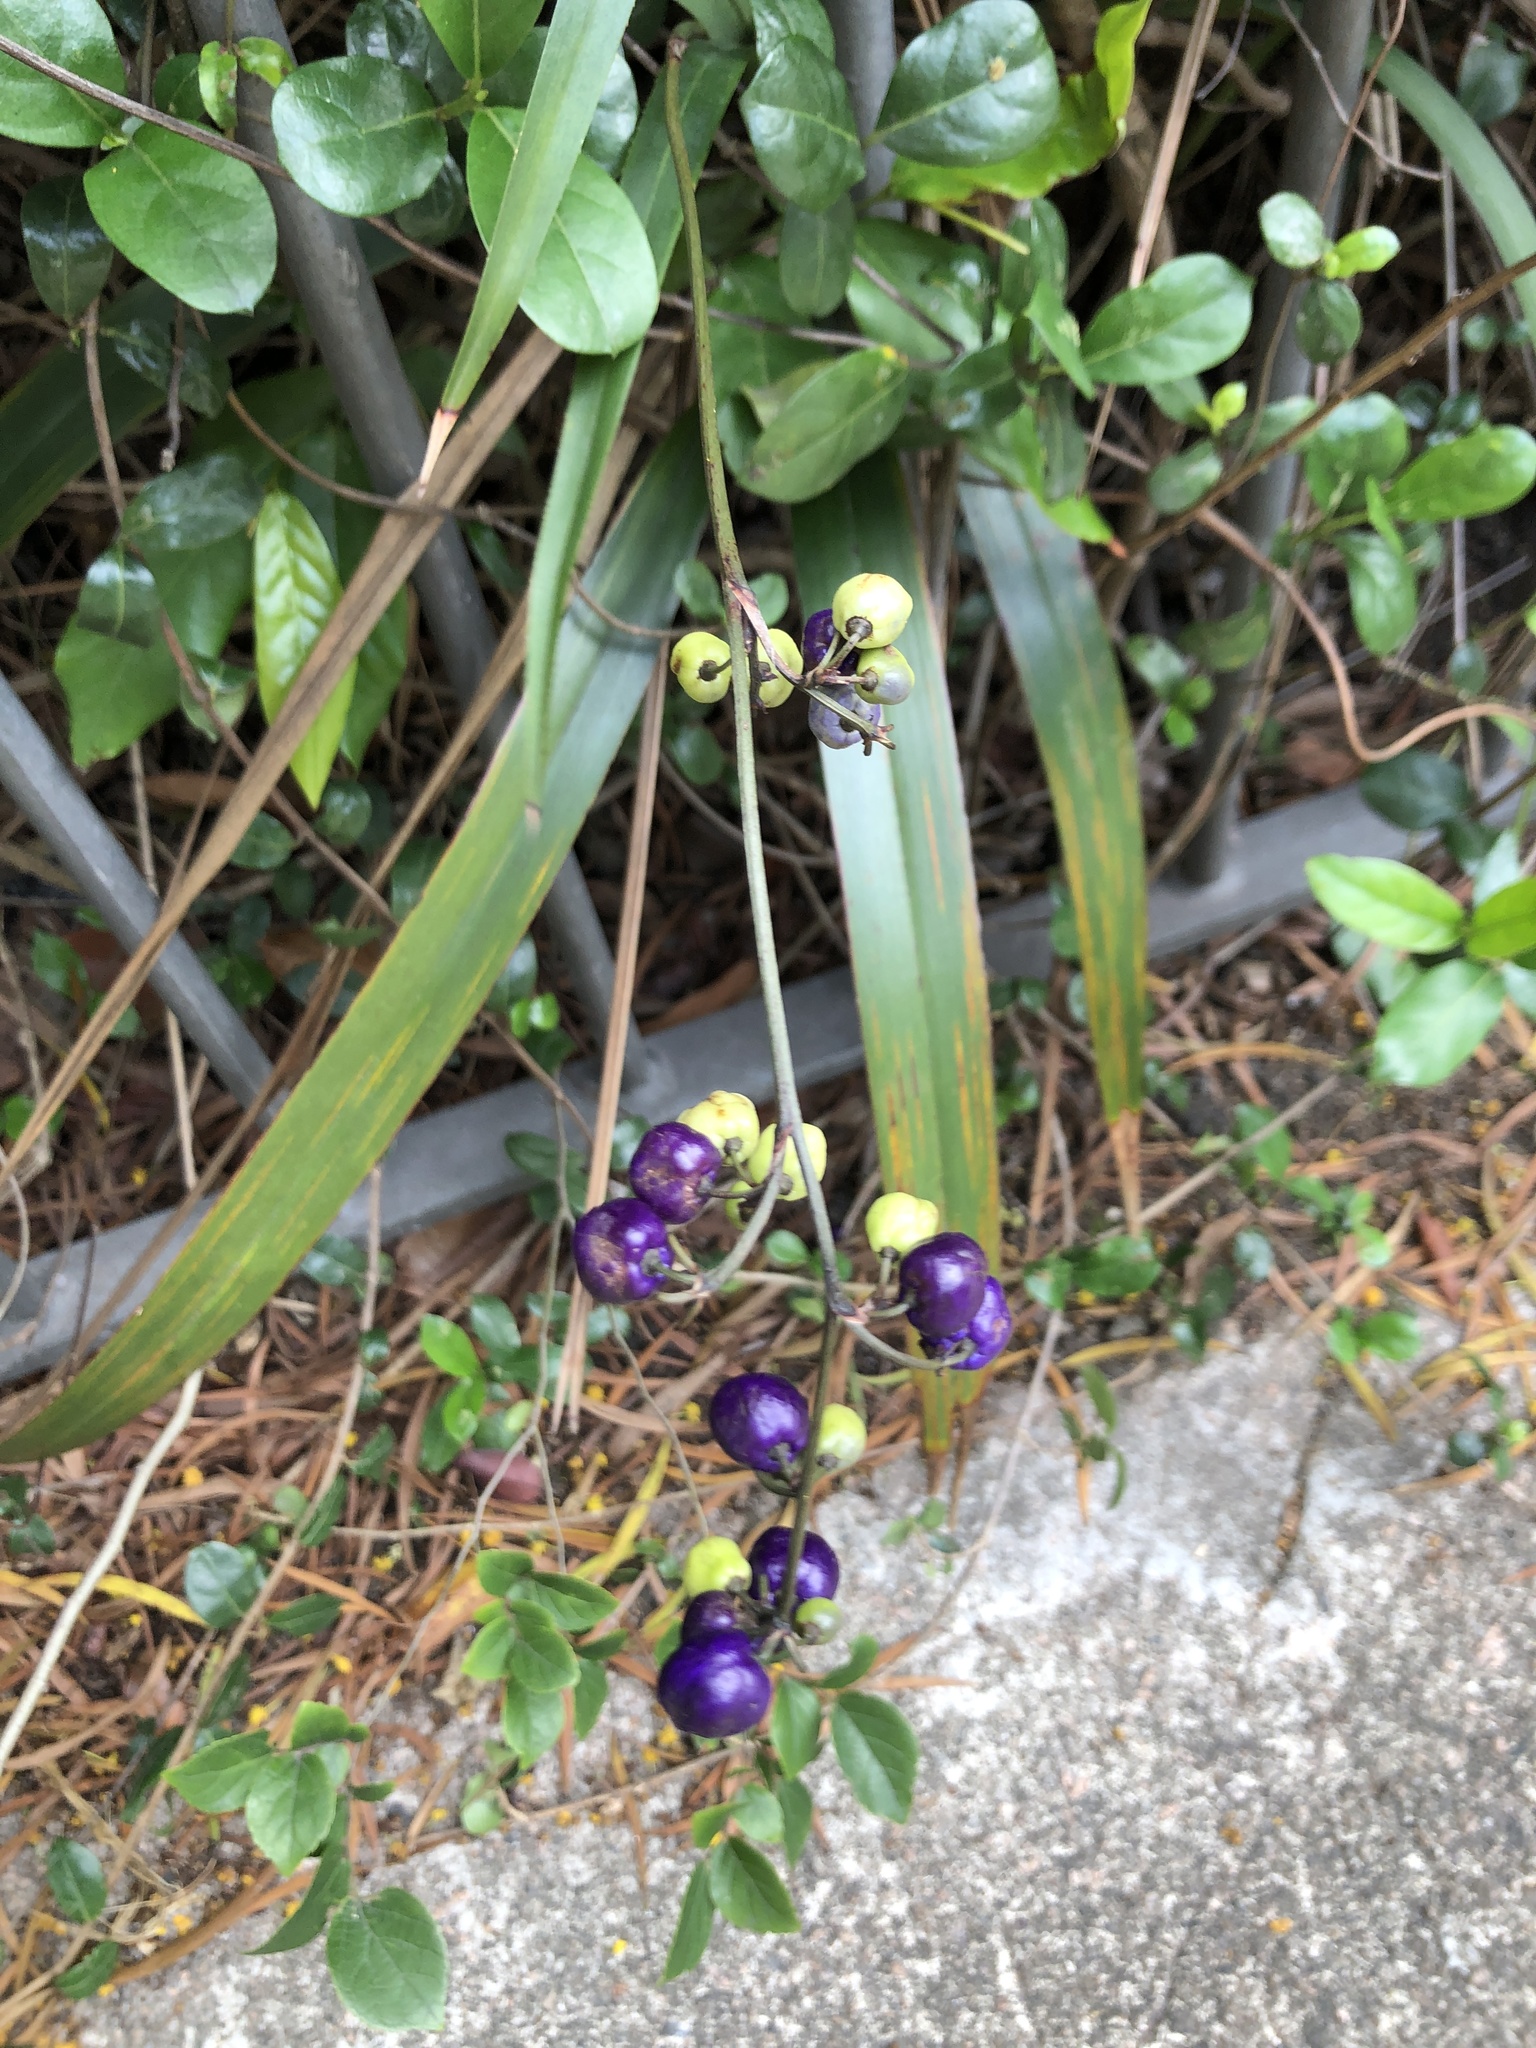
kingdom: Plantae
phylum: Tracheophyta
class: Liliopsida
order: Asparagales
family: Asphodelaceae
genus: Dianella
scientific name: Dianella ensifolia
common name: New zealand lilyplant
